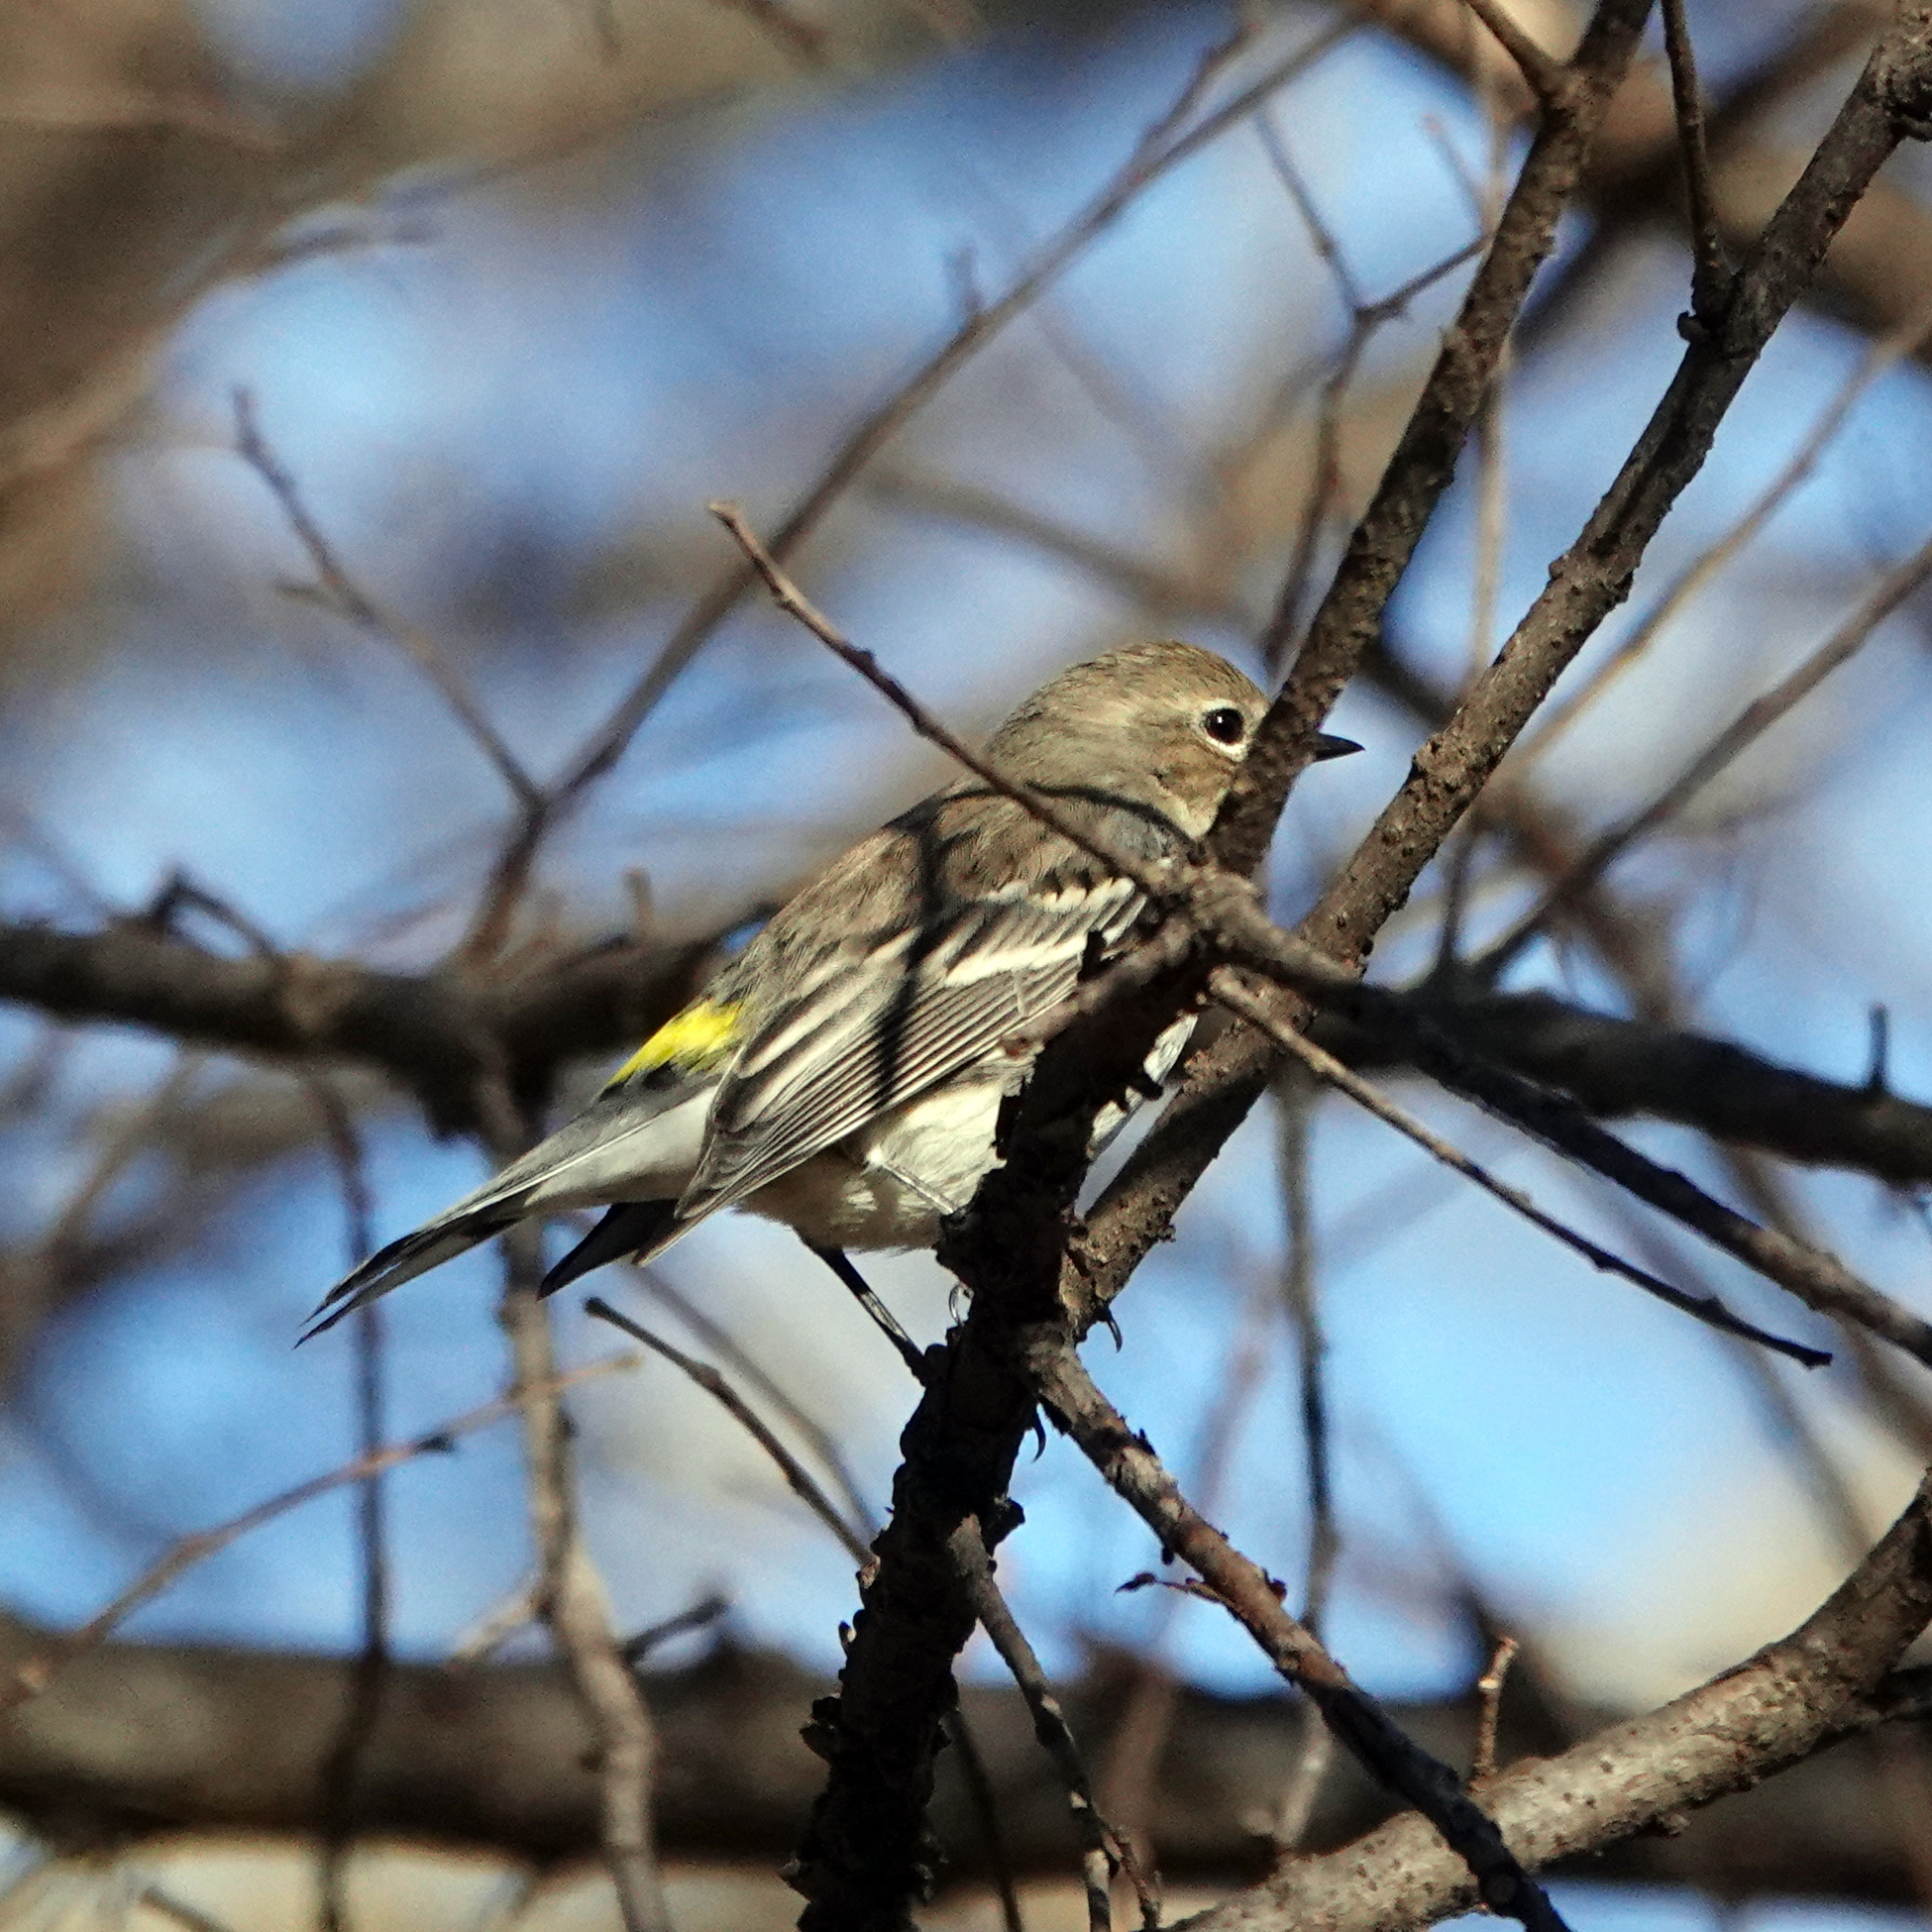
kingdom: Animalia
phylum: Chordata
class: Aves
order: Passeriformes
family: Parulidae
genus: Setophaga
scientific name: Setophaga coronata
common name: Myrtle warbler
